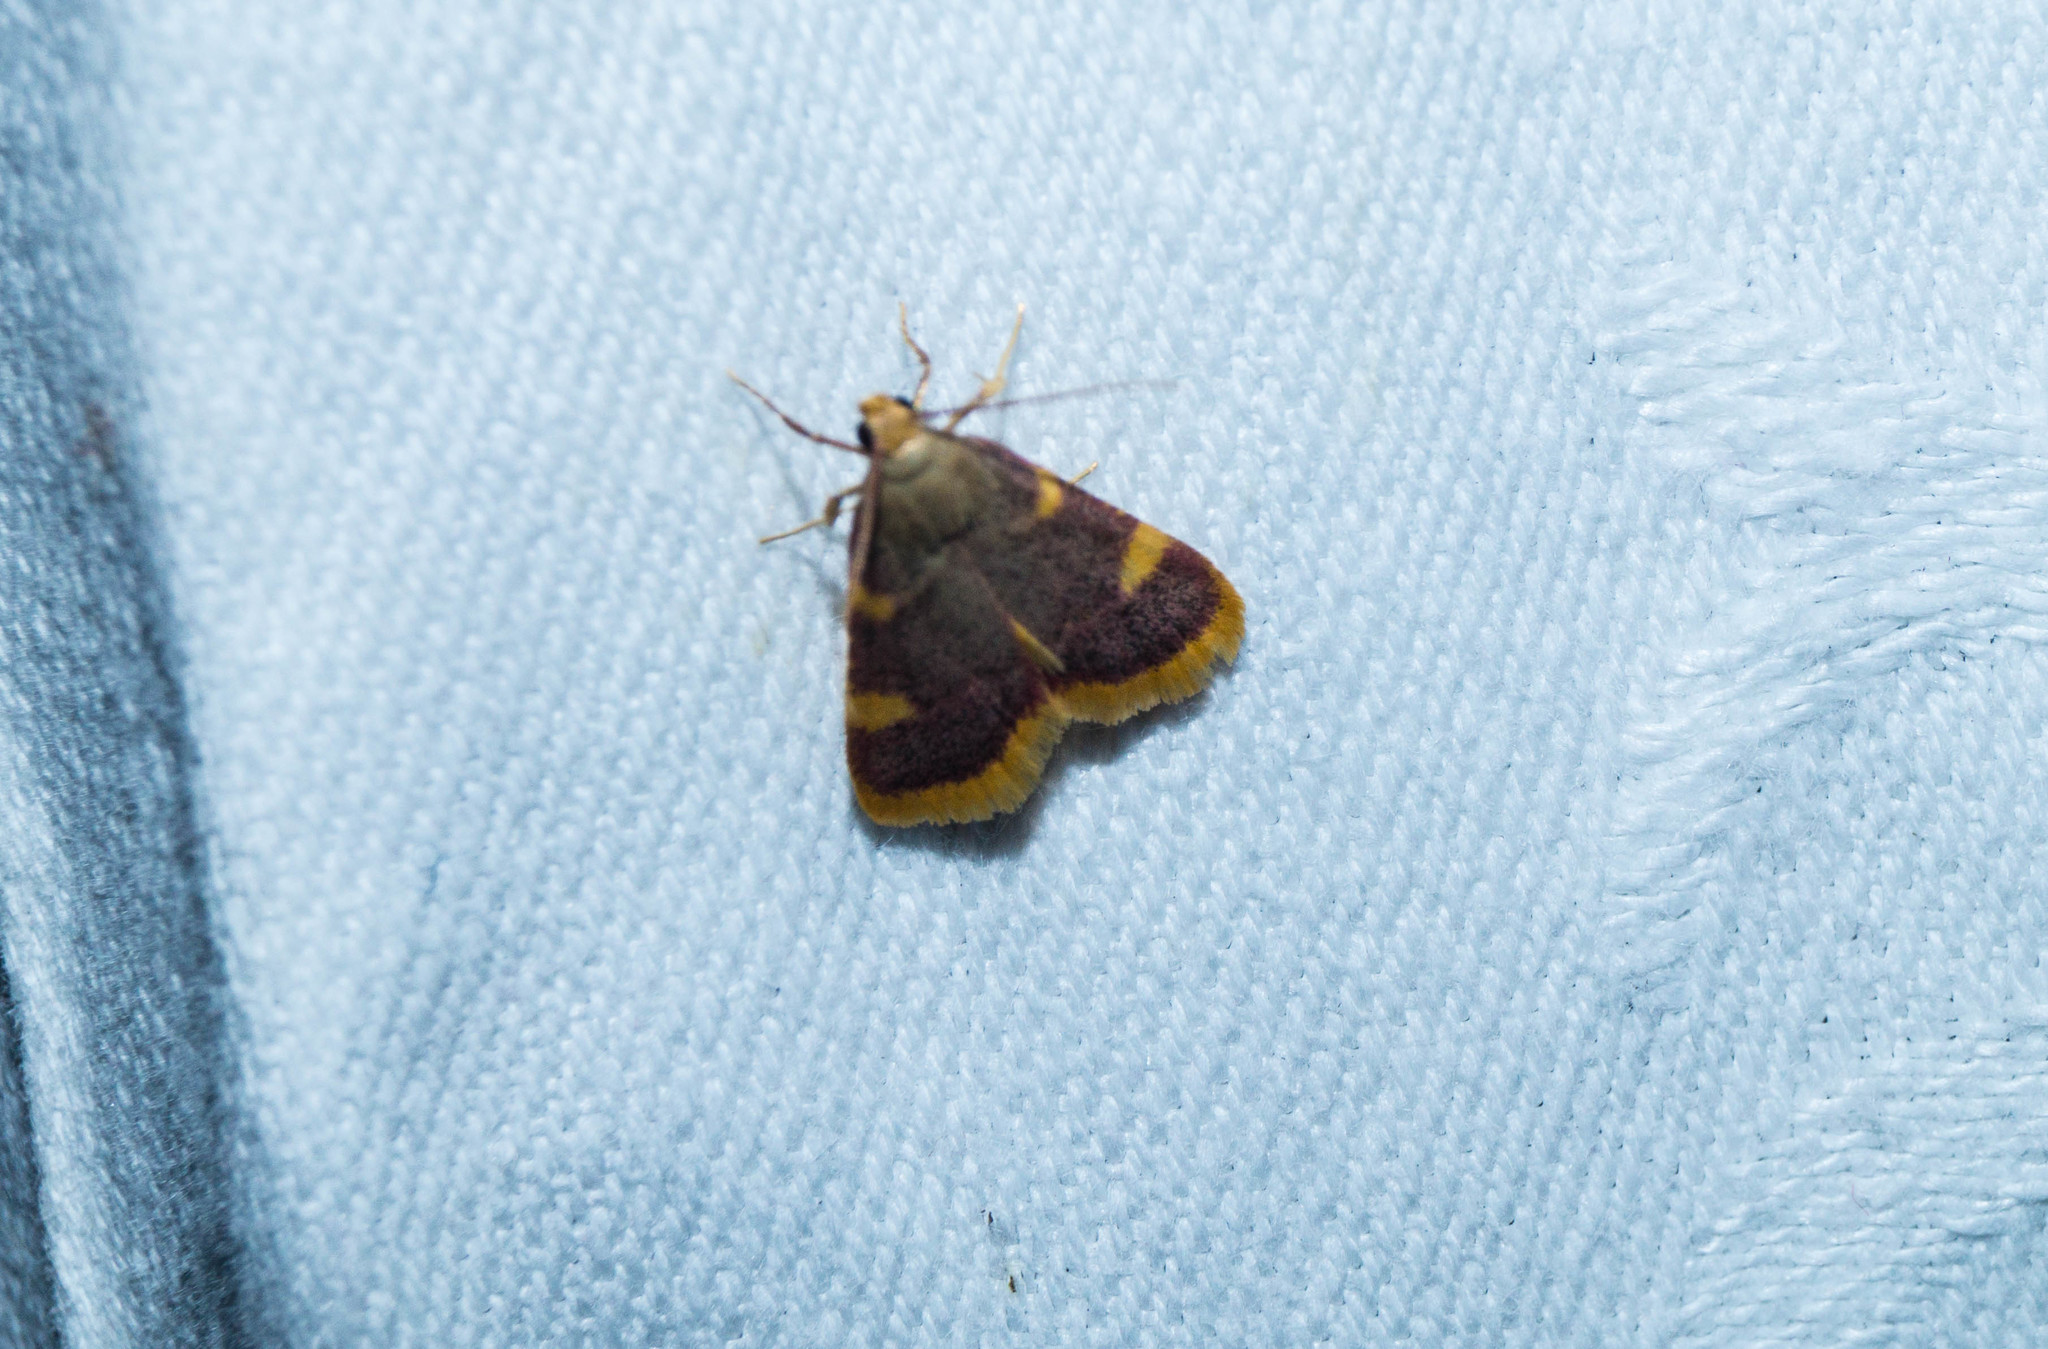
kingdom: Animalia
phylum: Arthropoda
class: Insecta
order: Lepidoptera
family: Pyralidae
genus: Hypsopygia
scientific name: Hypsopygia costalis
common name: Gold triangle
